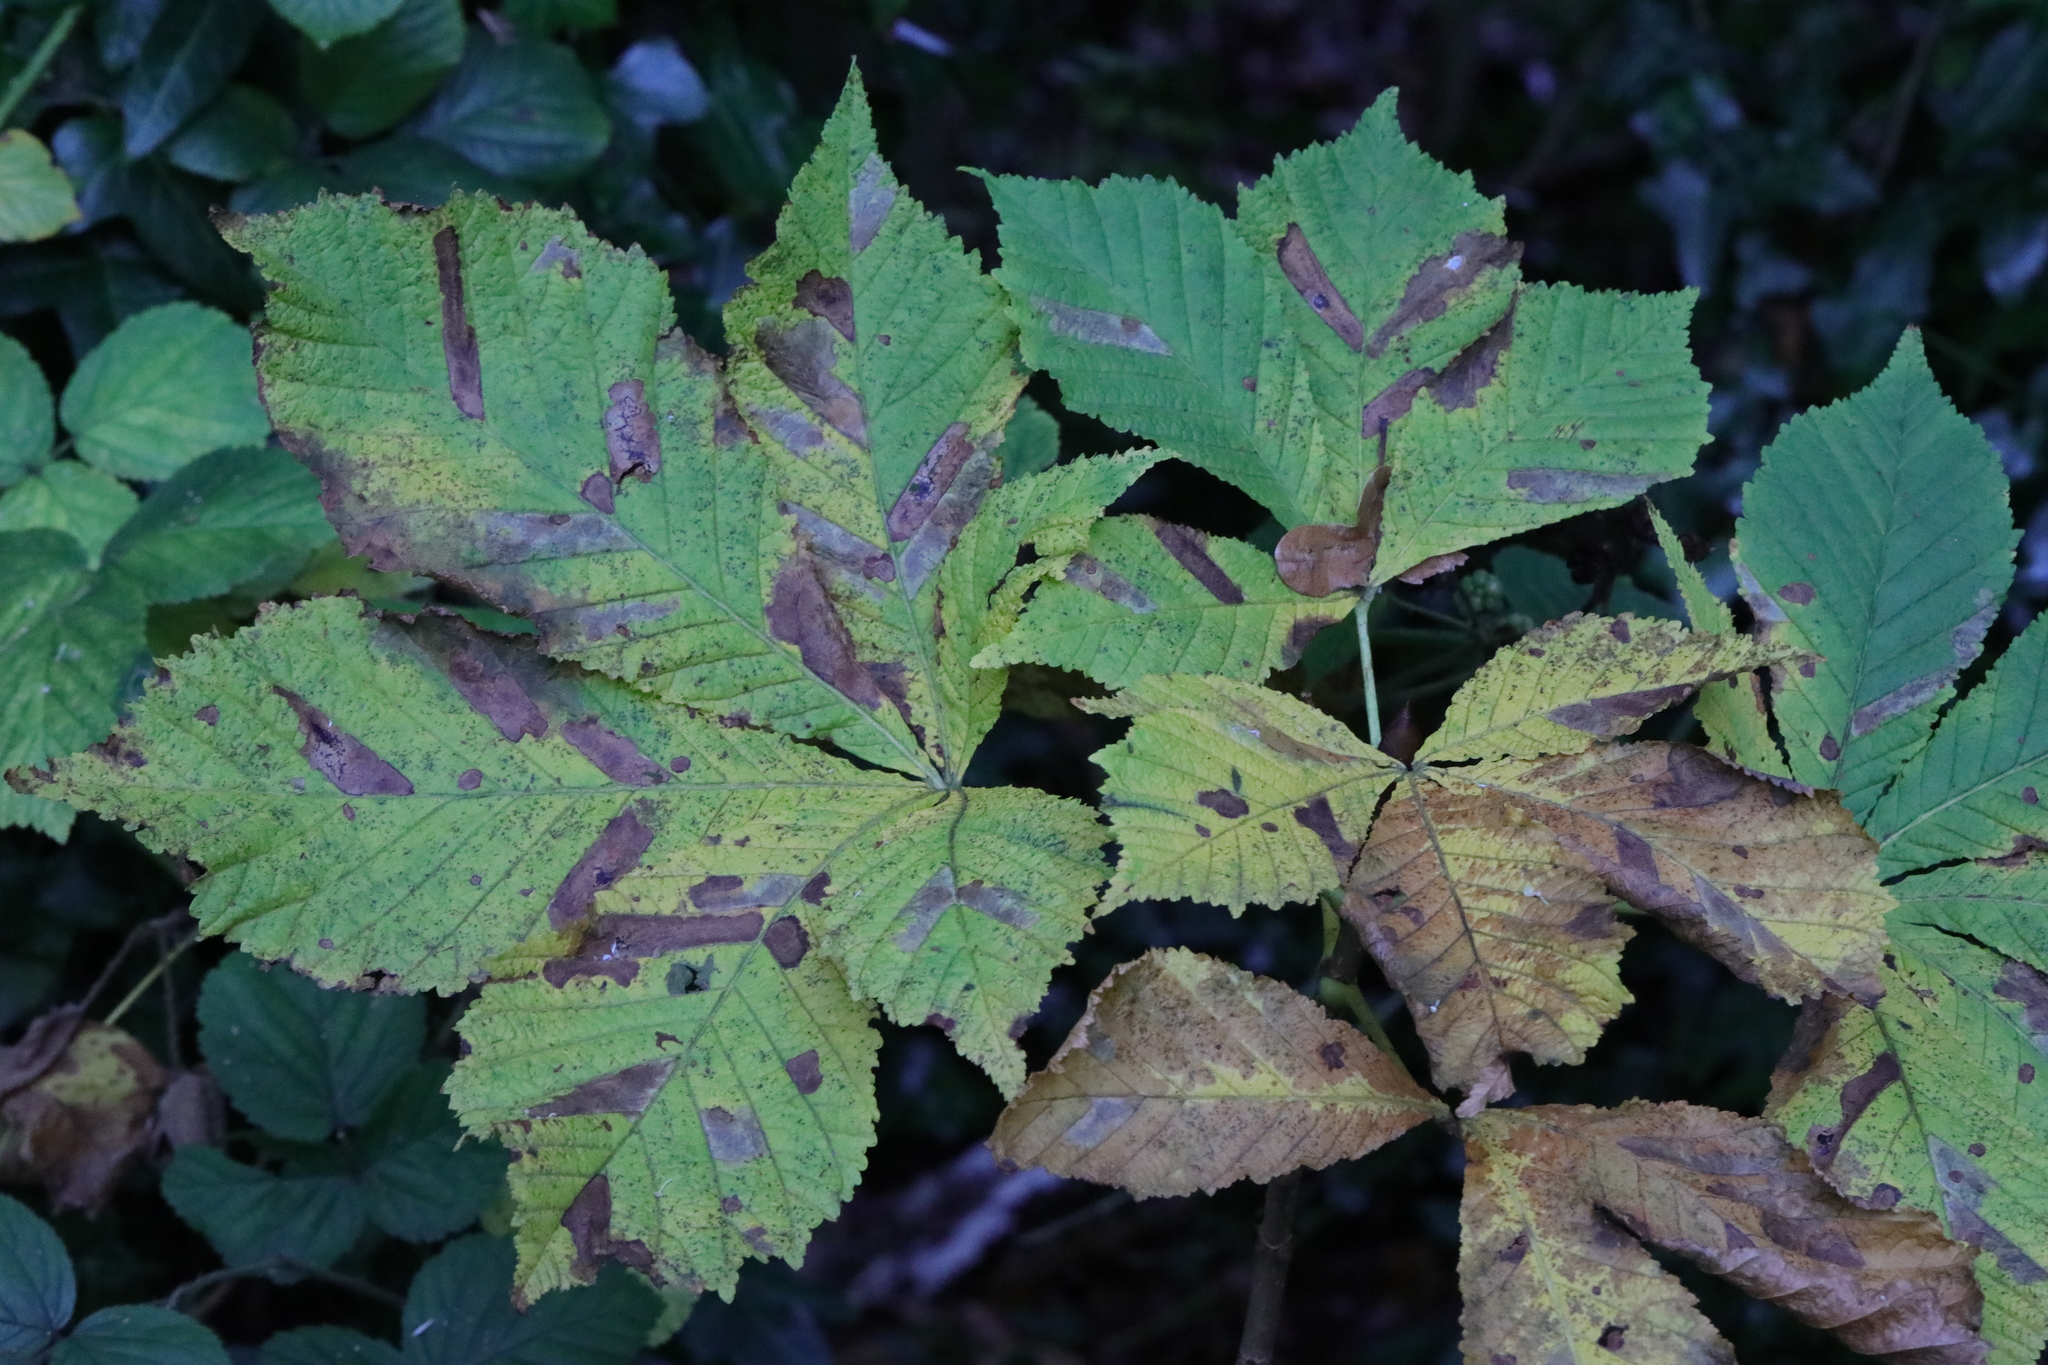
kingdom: Animalia
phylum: Arthropoda
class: Insecta
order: Lepidoptera
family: Gracillariidae
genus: Cameraria
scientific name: Cameraria ohridella
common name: Horse-chestnut leaf-miner
